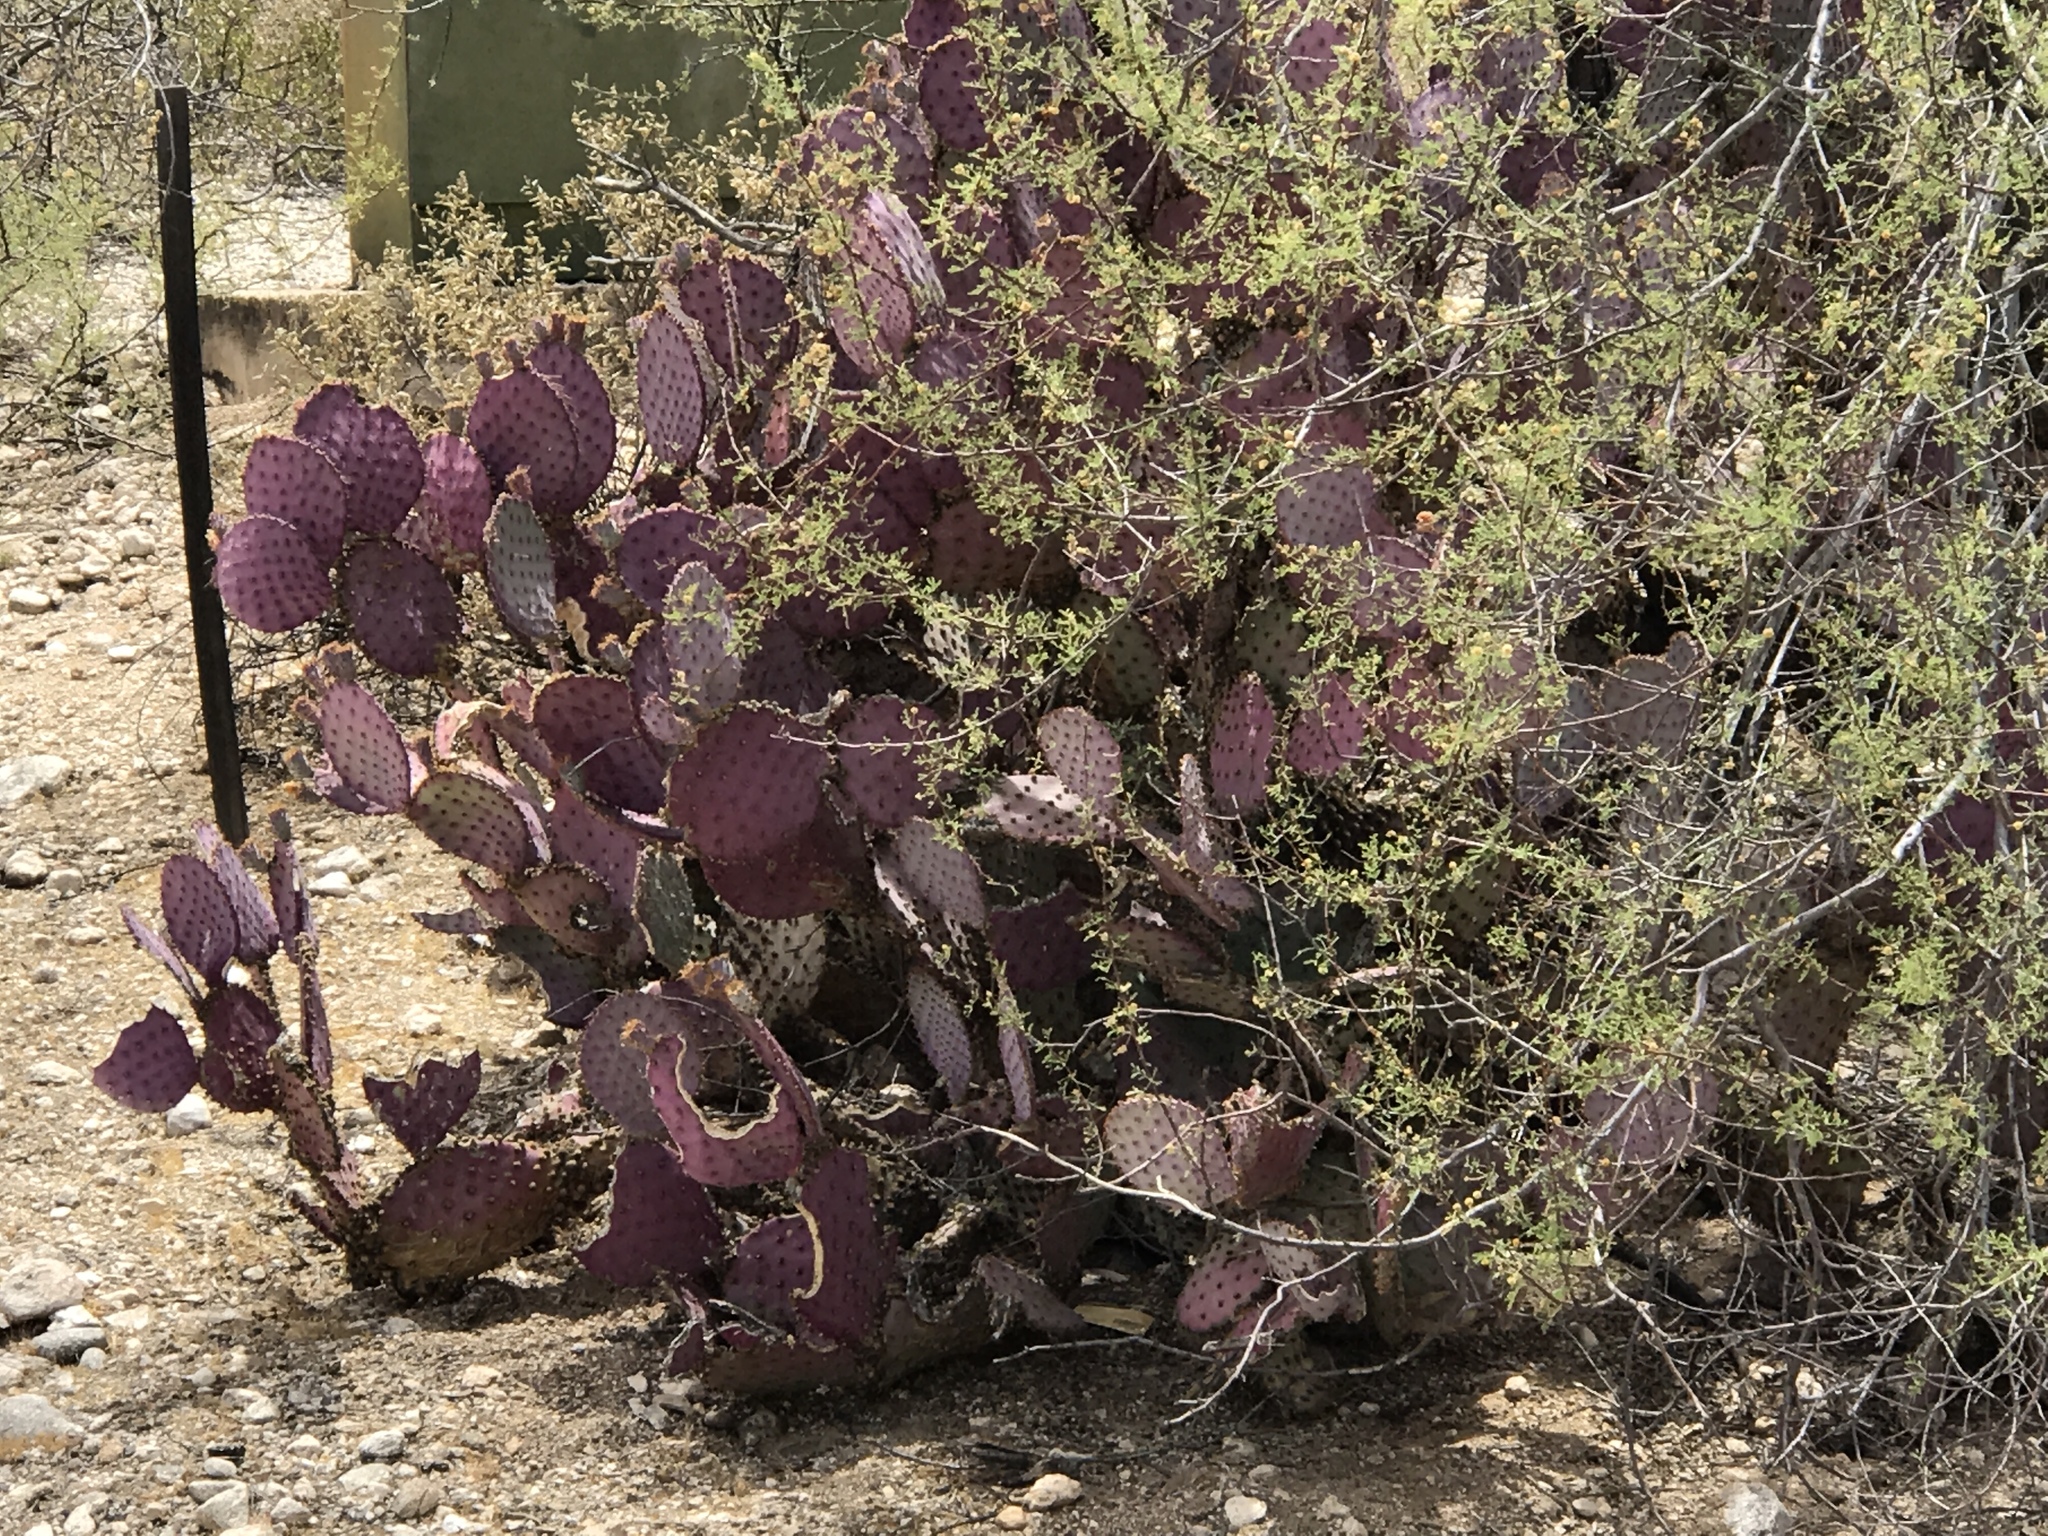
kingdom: Plantae
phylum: Tracheophyta
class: Magnoliopsida
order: Caryophyllales
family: Cactaceae
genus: Opuntia
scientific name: Opuntia gosseliniana
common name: Violet prickly-pear
